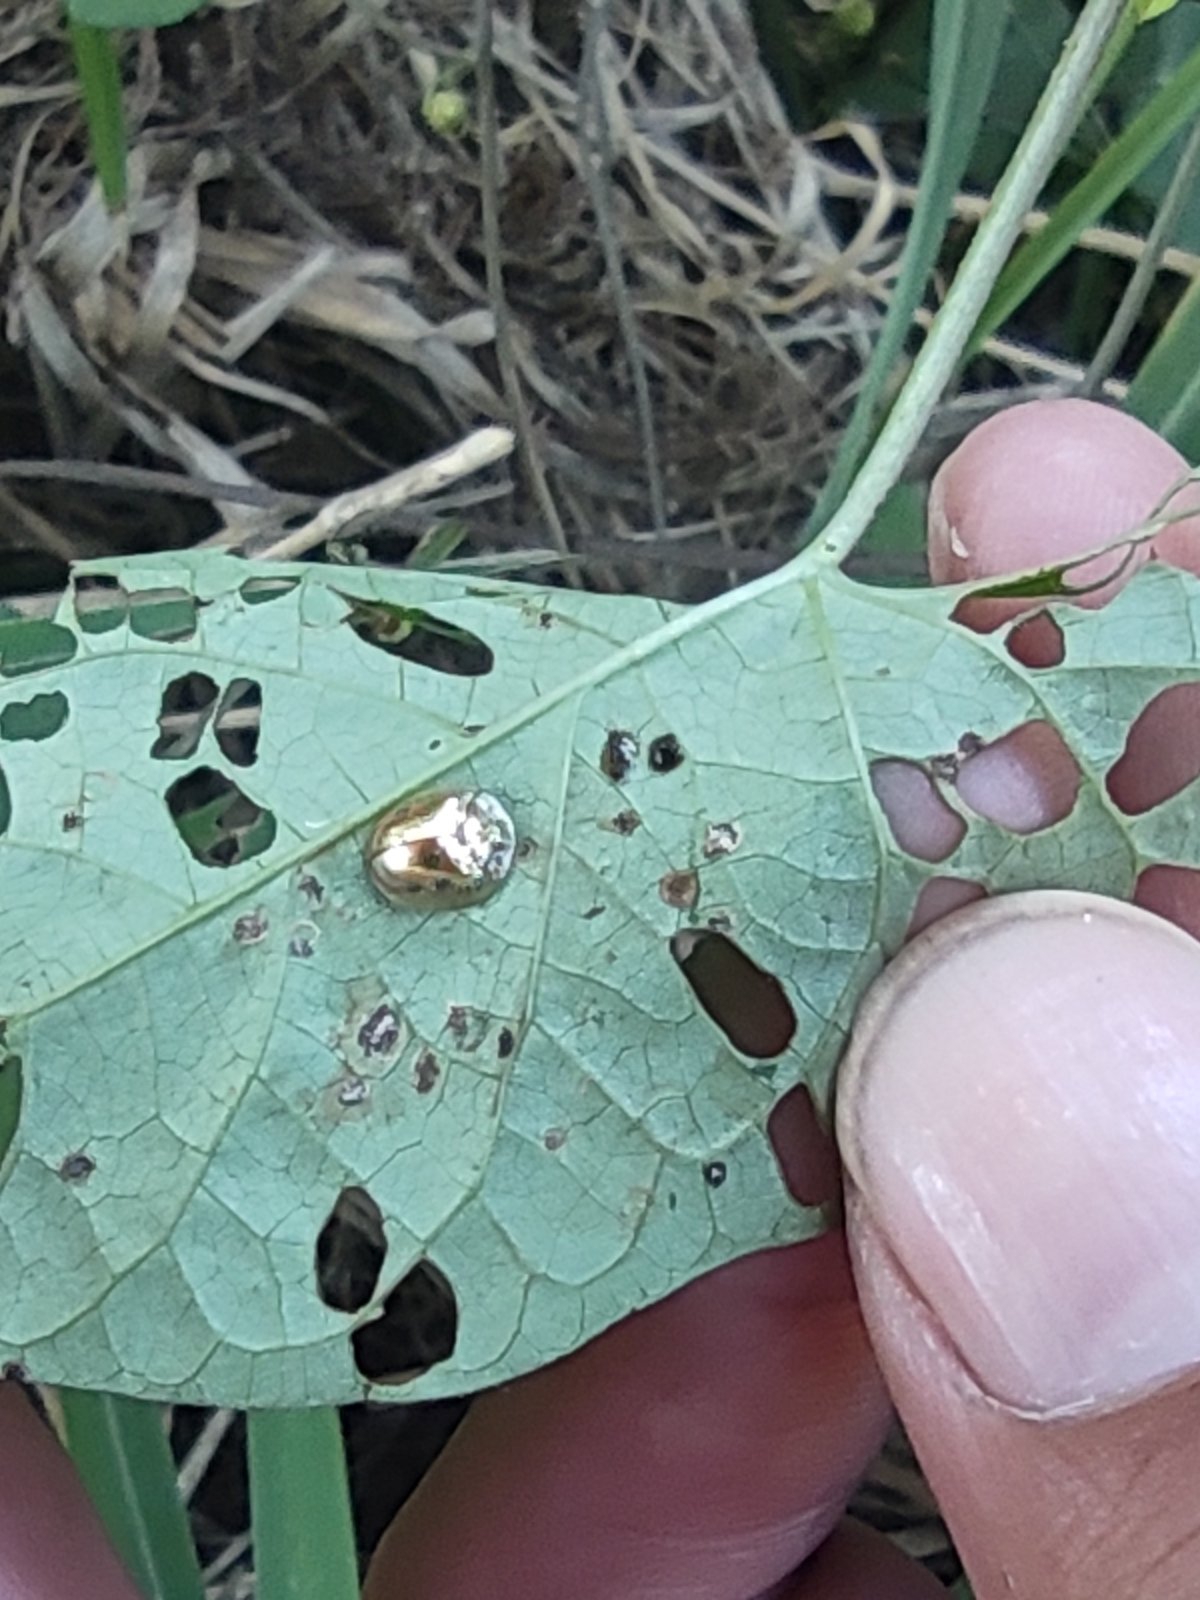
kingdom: Animalia
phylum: Arthropoda
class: Insecta
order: Coleoptera
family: Chrysomelidae
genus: Charidotella
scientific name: Charidotella sexpunctata
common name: Golden tortoise beetle
